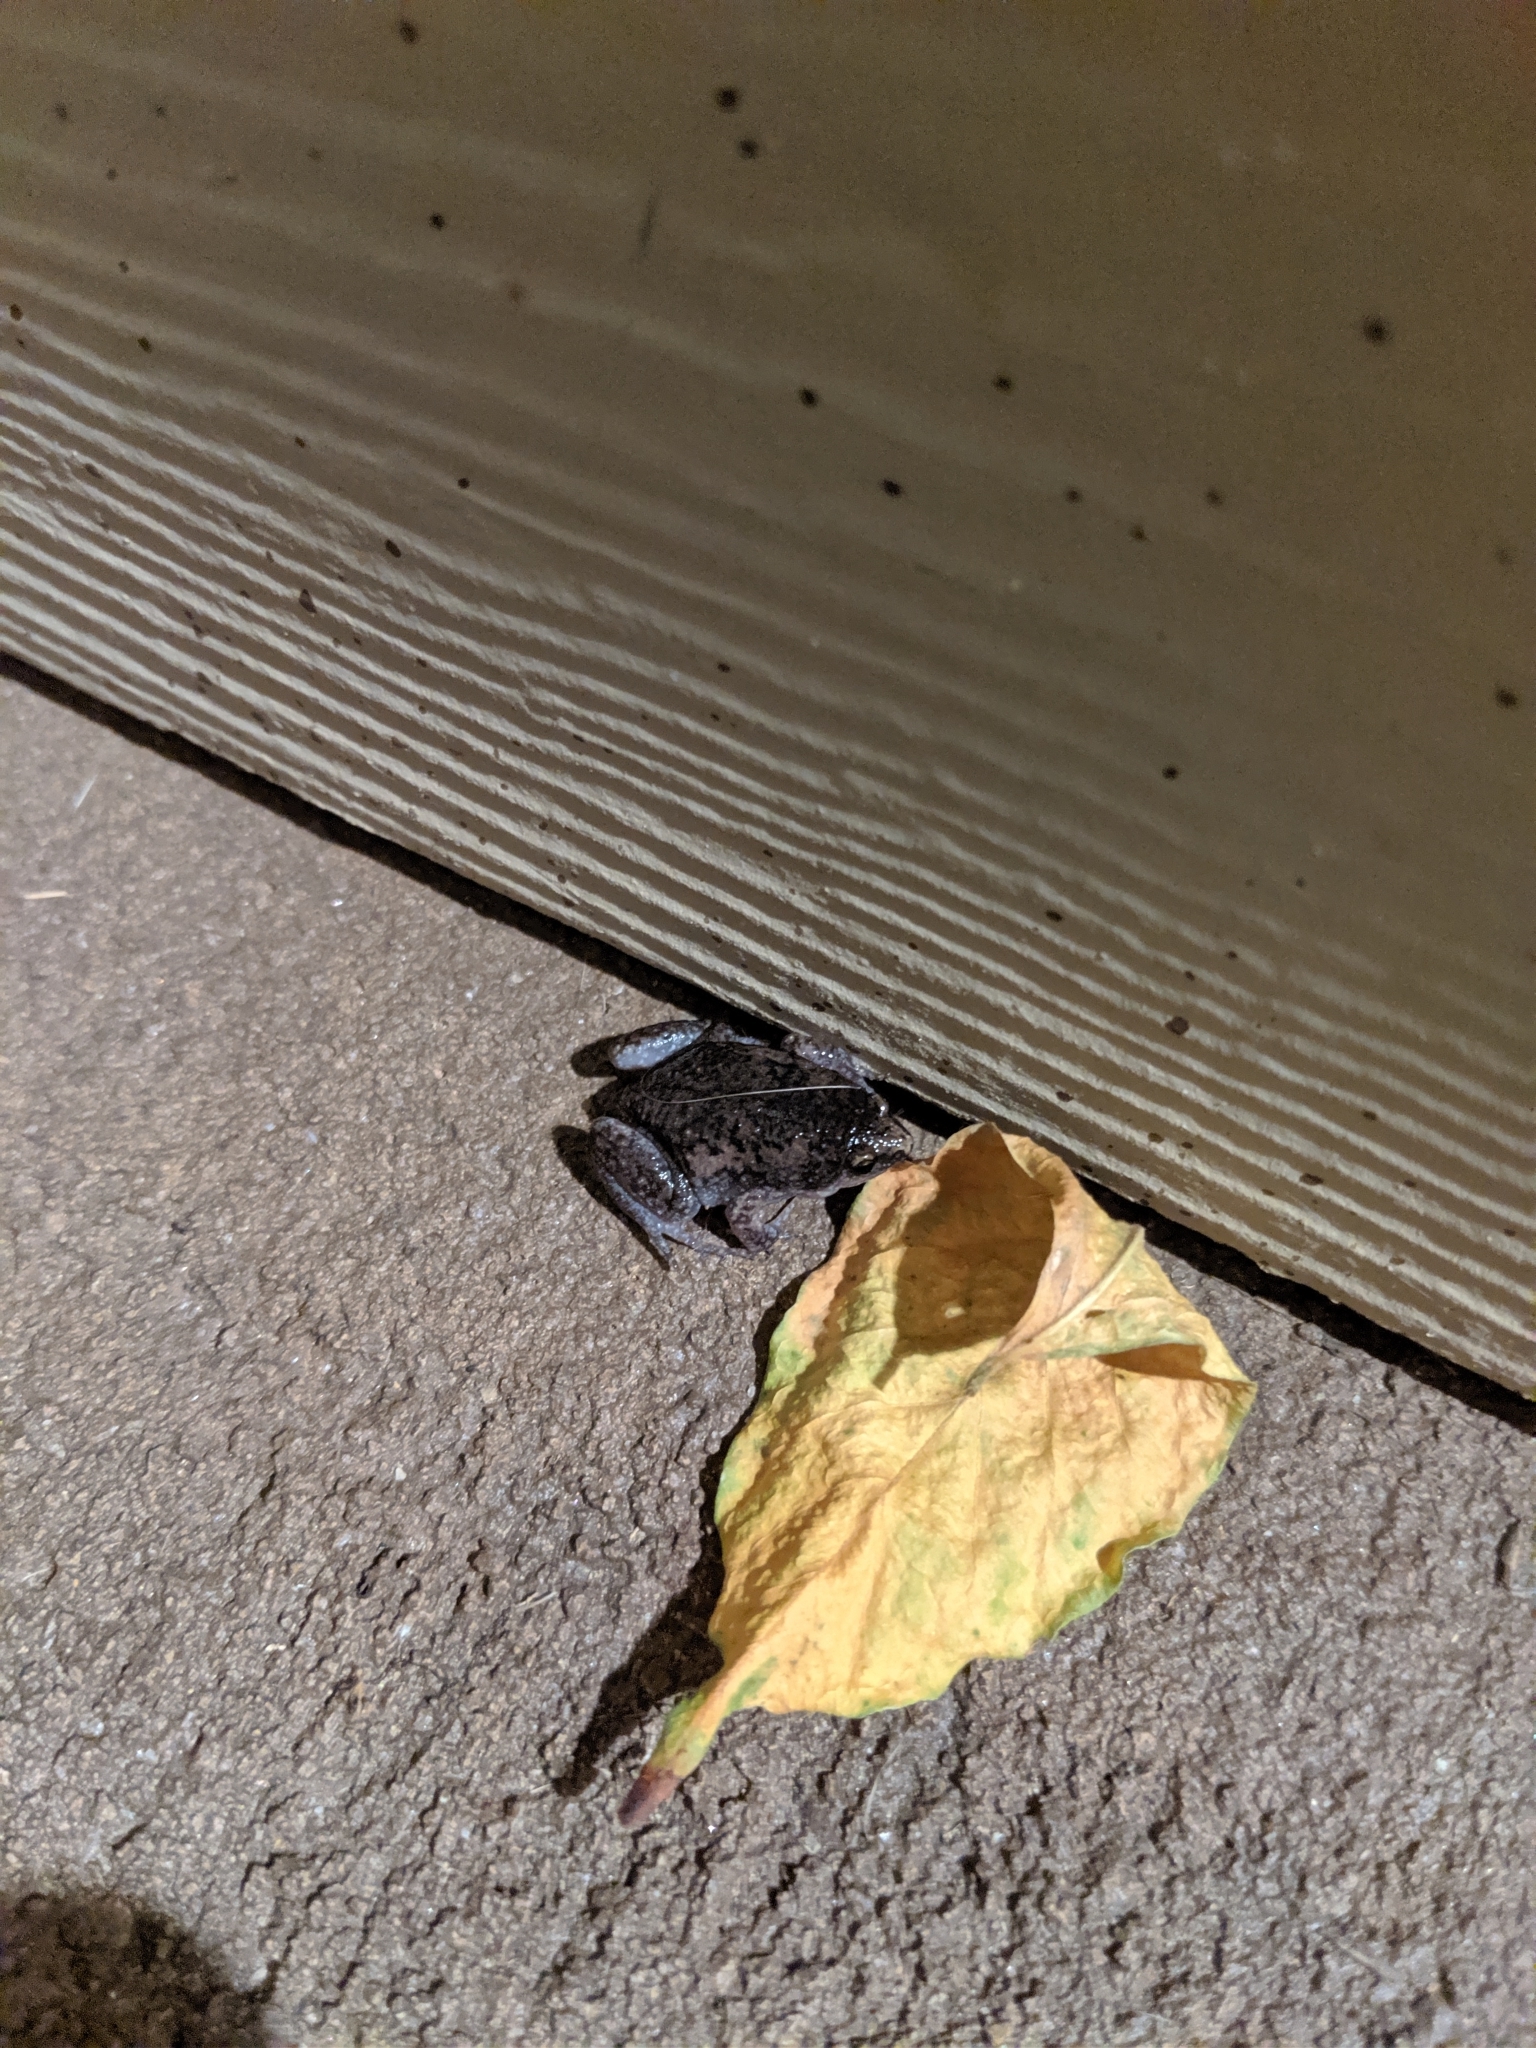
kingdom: Animalia
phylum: Chordata
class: Amphibia
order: Anura
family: Microhylidae
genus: Gastrophryne
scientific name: Gastrophryne carolinensis
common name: Eastern narrowmouth toad
